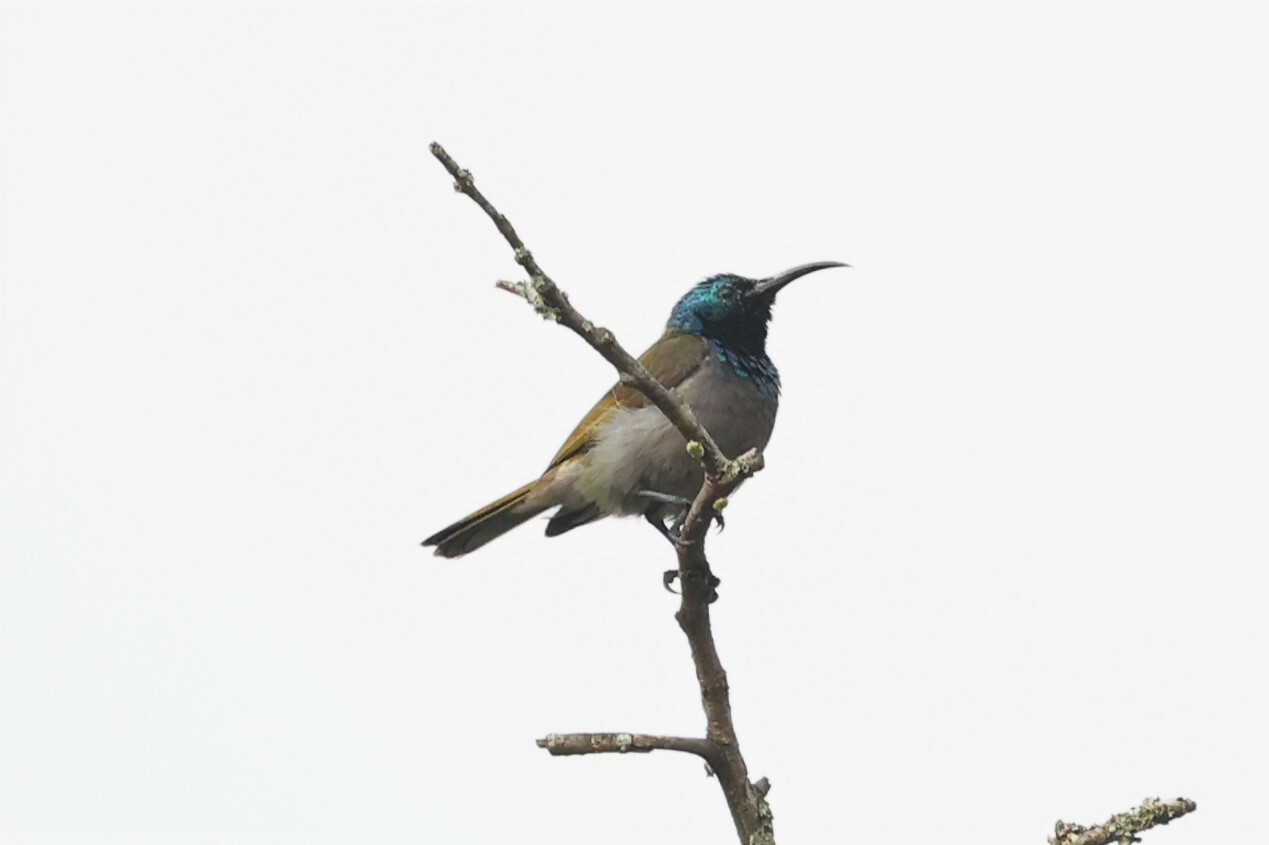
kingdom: Animalia
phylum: Chordata
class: Aves
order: Passeriformes
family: Nectariniidae
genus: Cyanomitra
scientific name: Cyanomitra verticalis
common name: Green-headed sunbird
